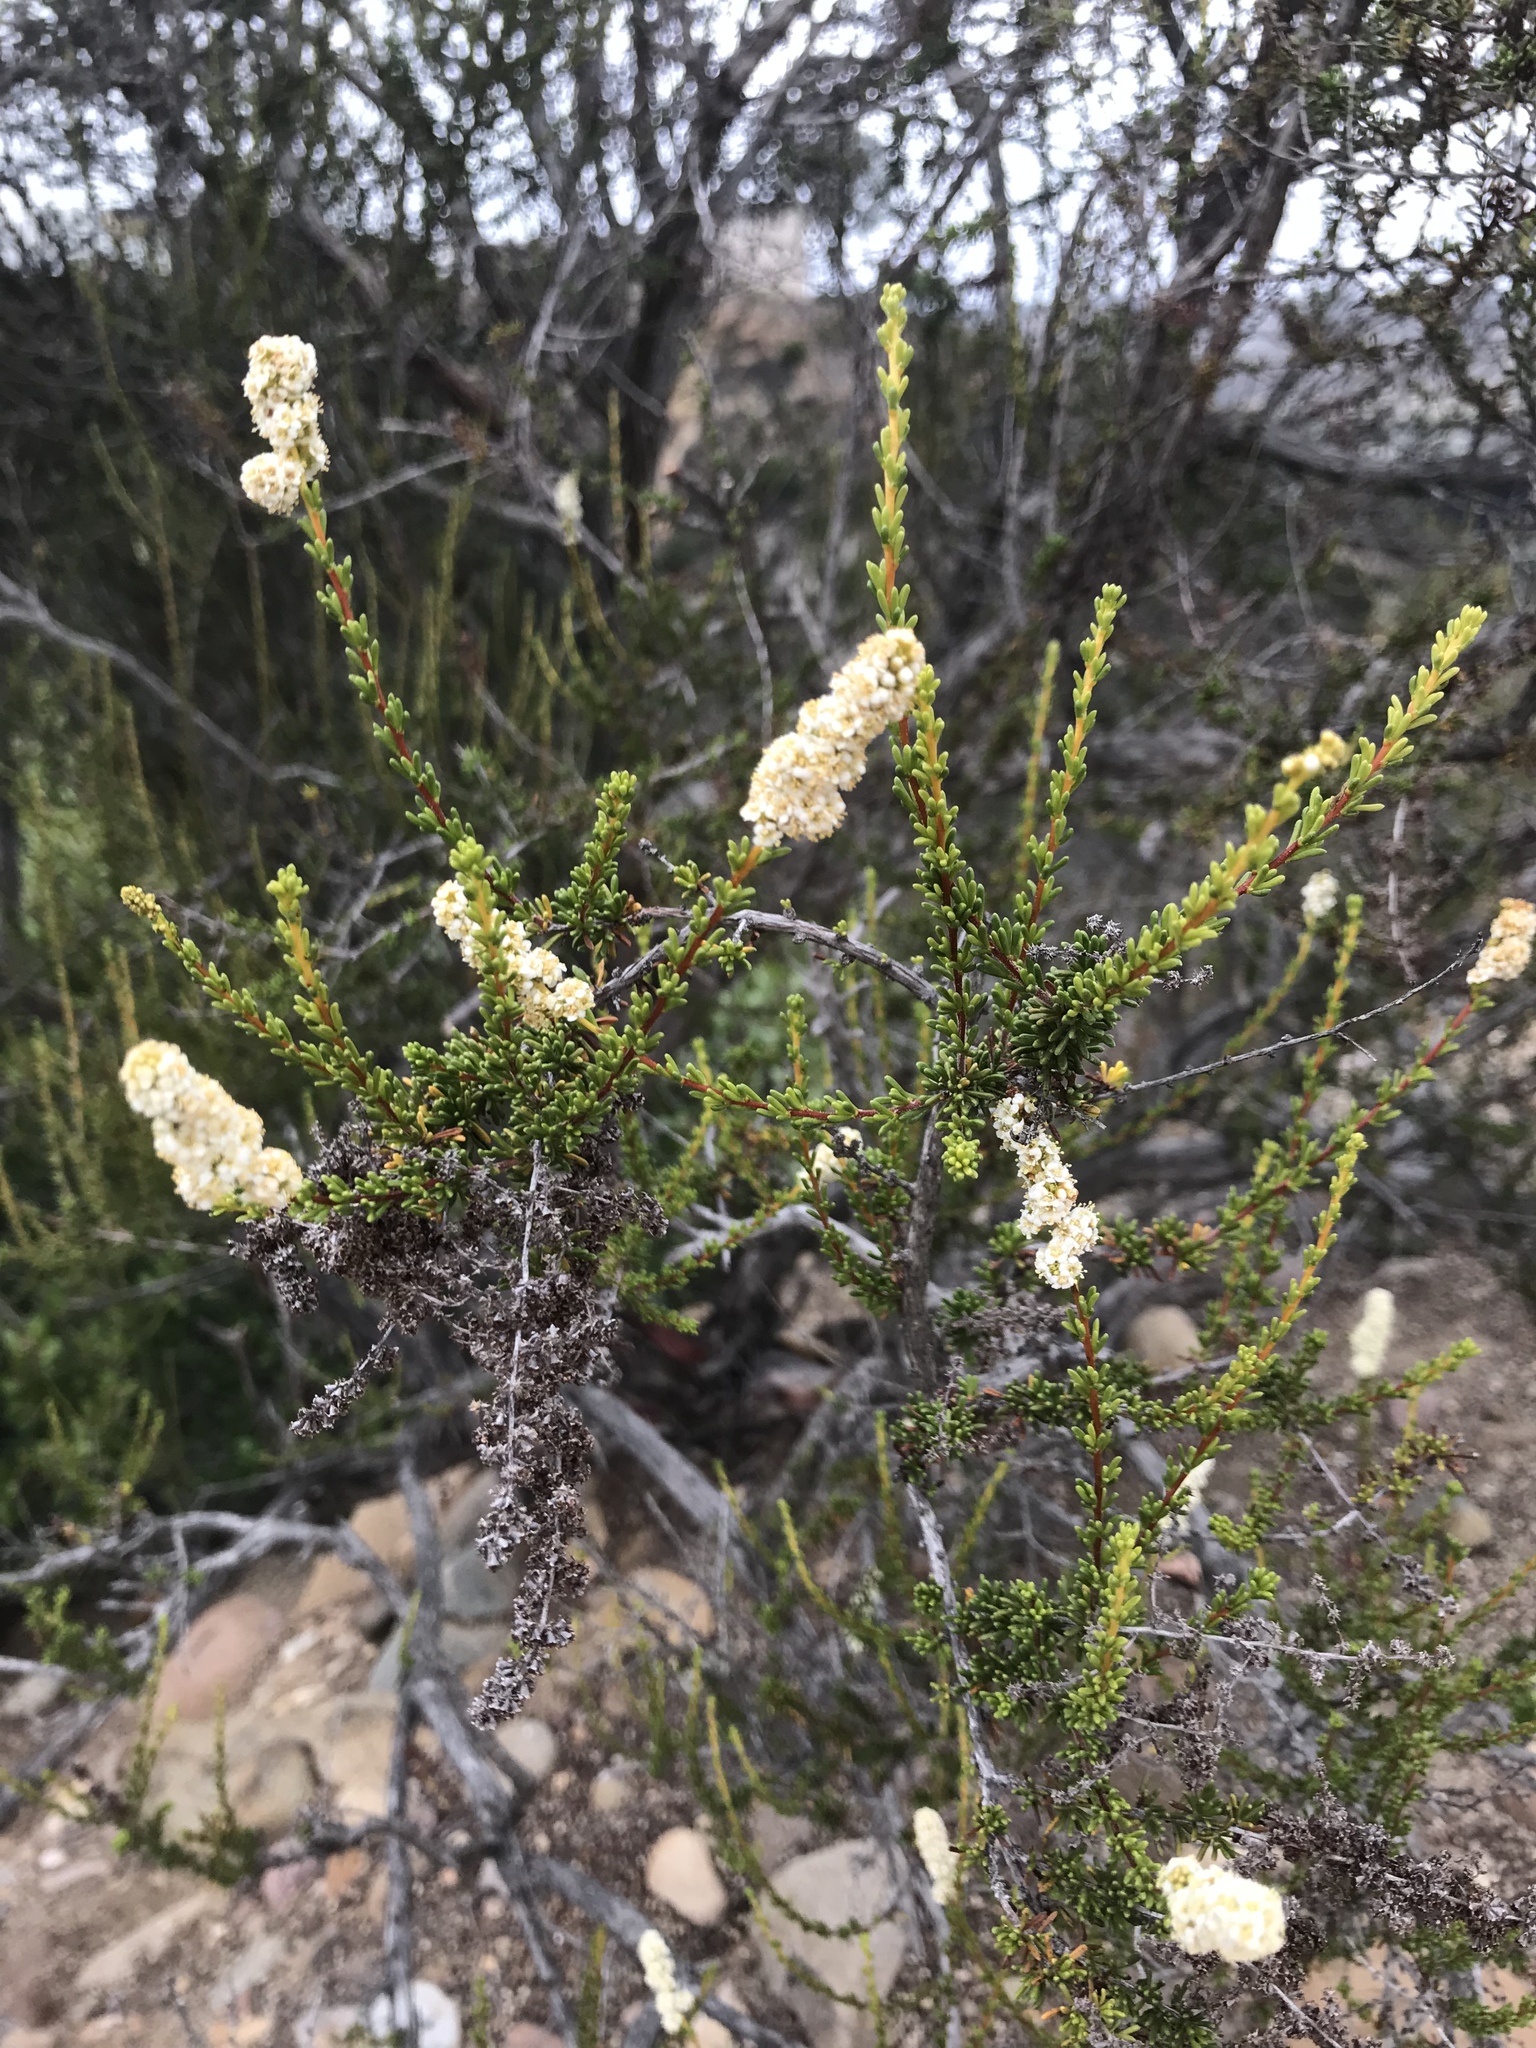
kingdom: Plantae
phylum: Tracheophyta
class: Magnoliopsida
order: Rosales
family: Rosaceae
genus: Adenostoma
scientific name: Adenostoma fasciculatum
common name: Chamise
